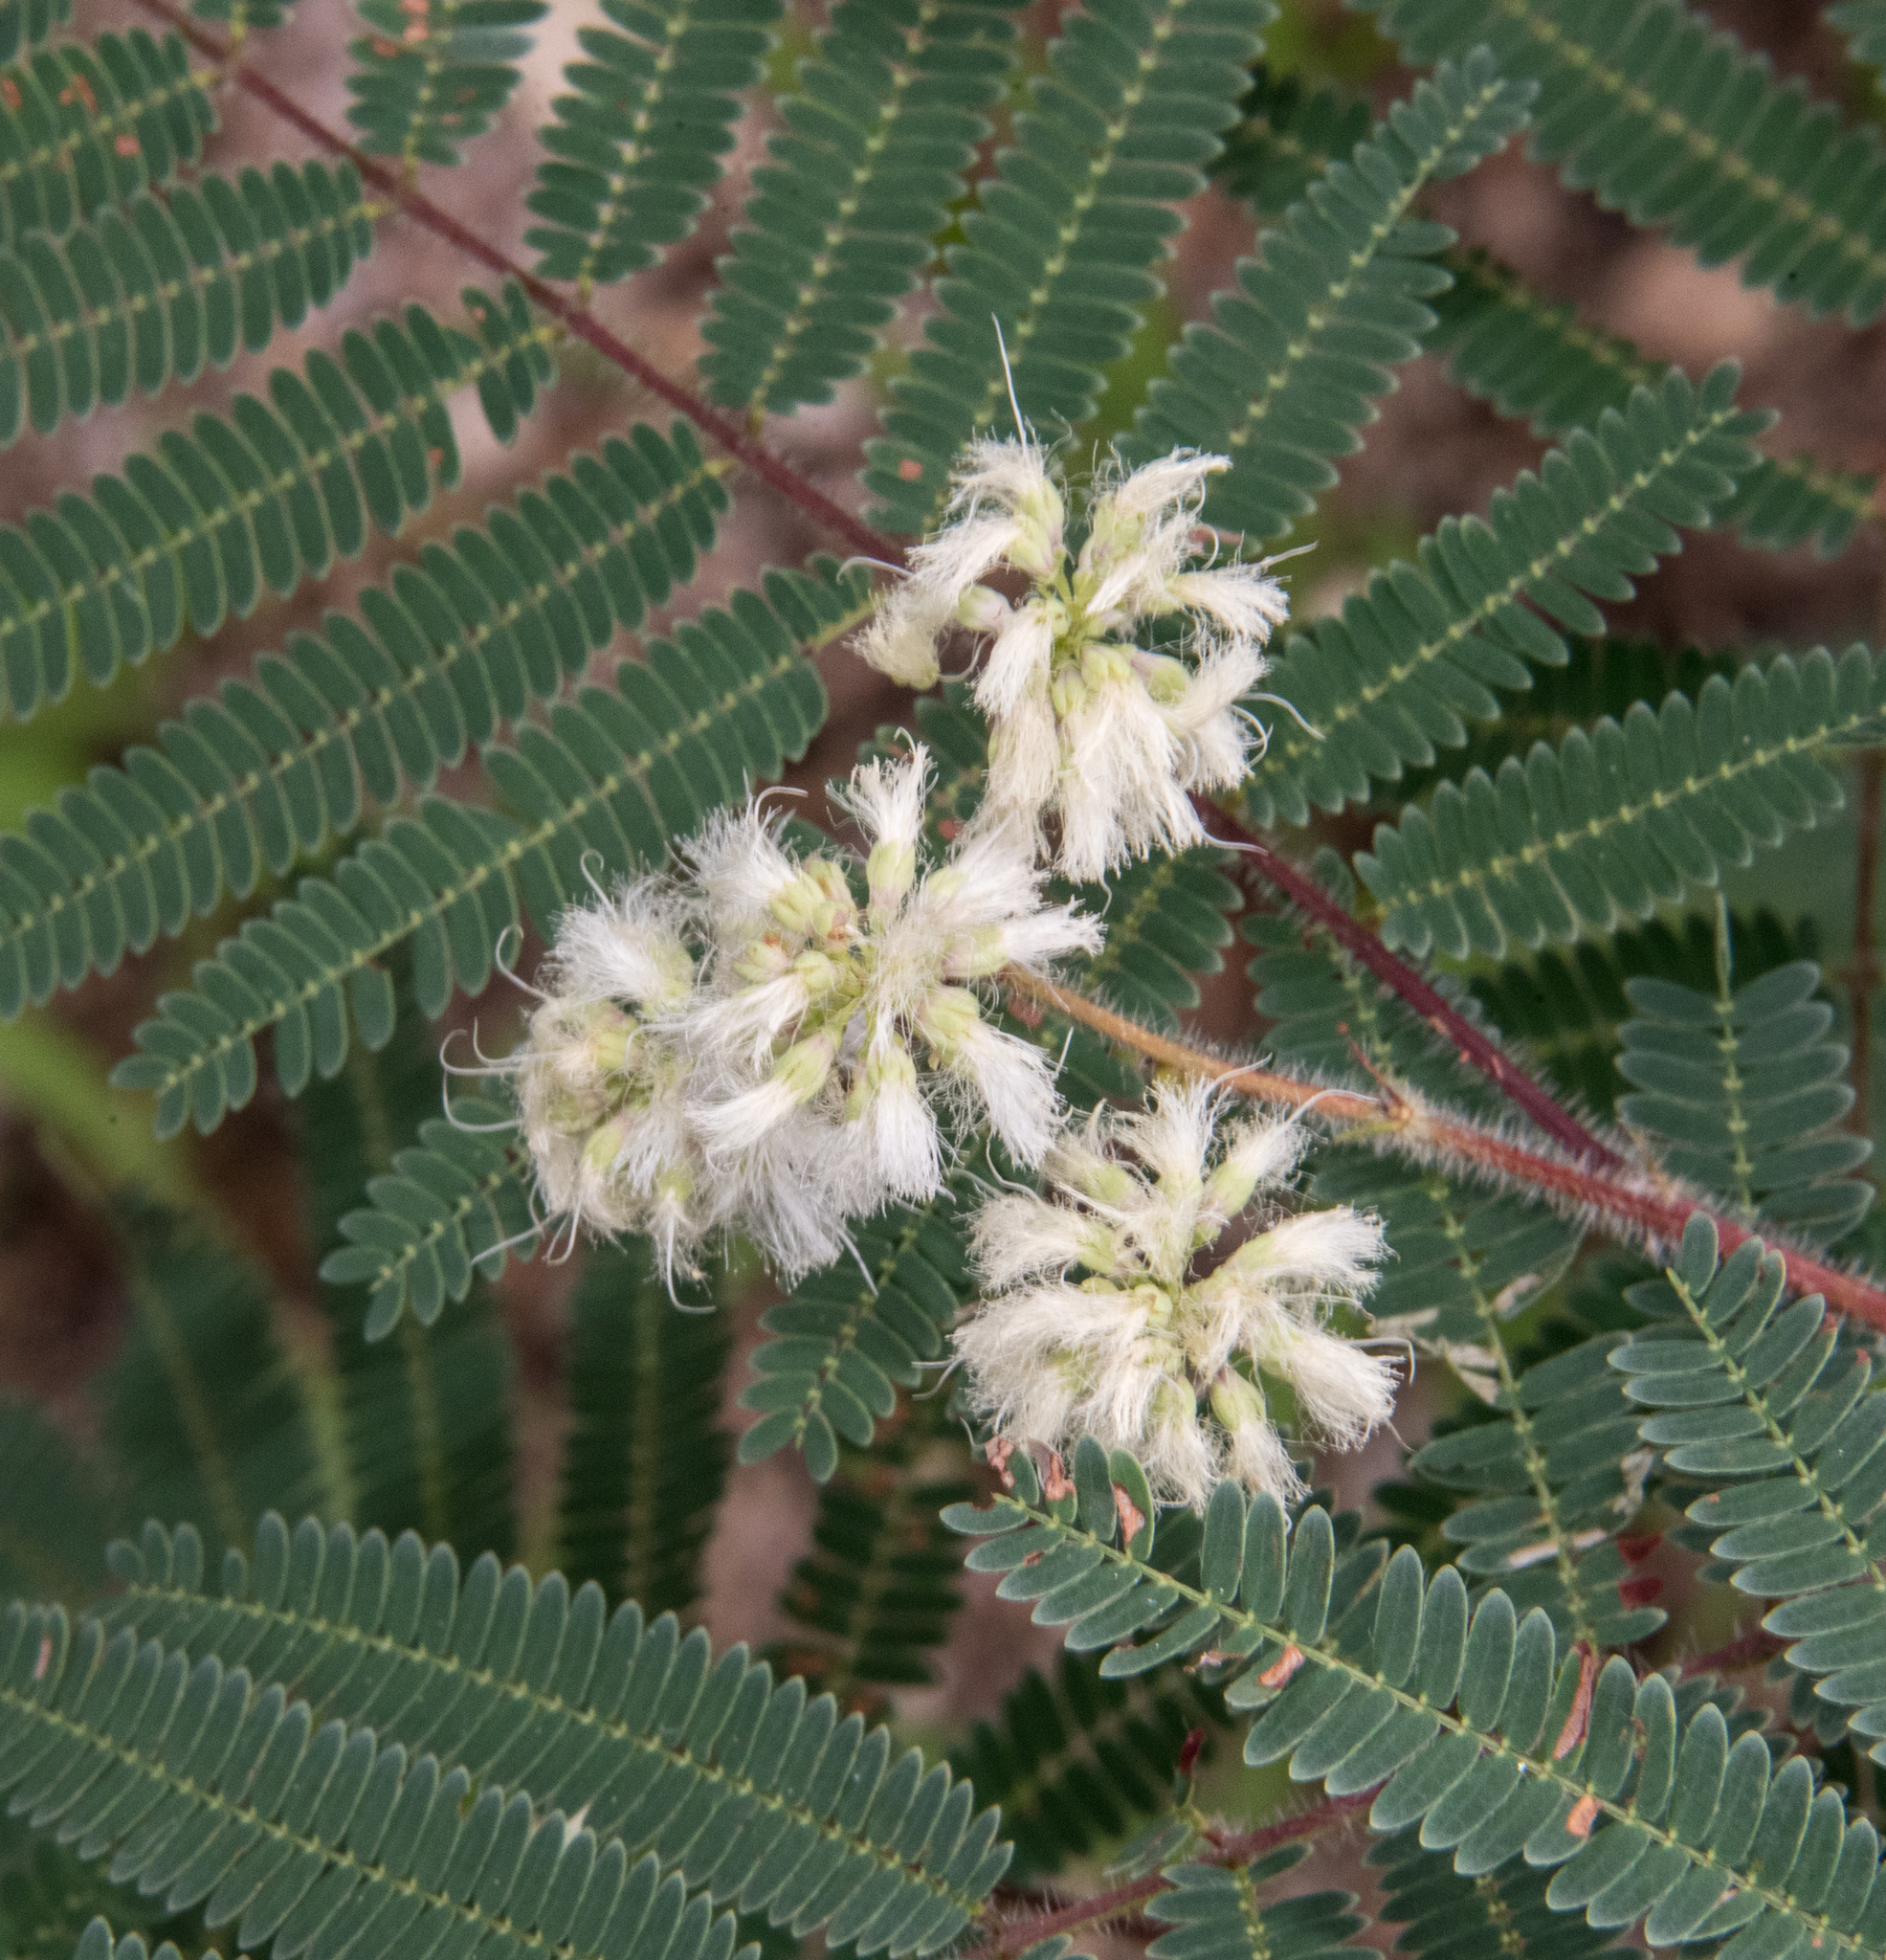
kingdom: Plantae
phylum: Tracheophyta
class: Magnoliopsida
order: Fabales
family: Fabaceae
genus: Acaciella
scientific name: Acaciella angustissima
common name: Prairie acacia
